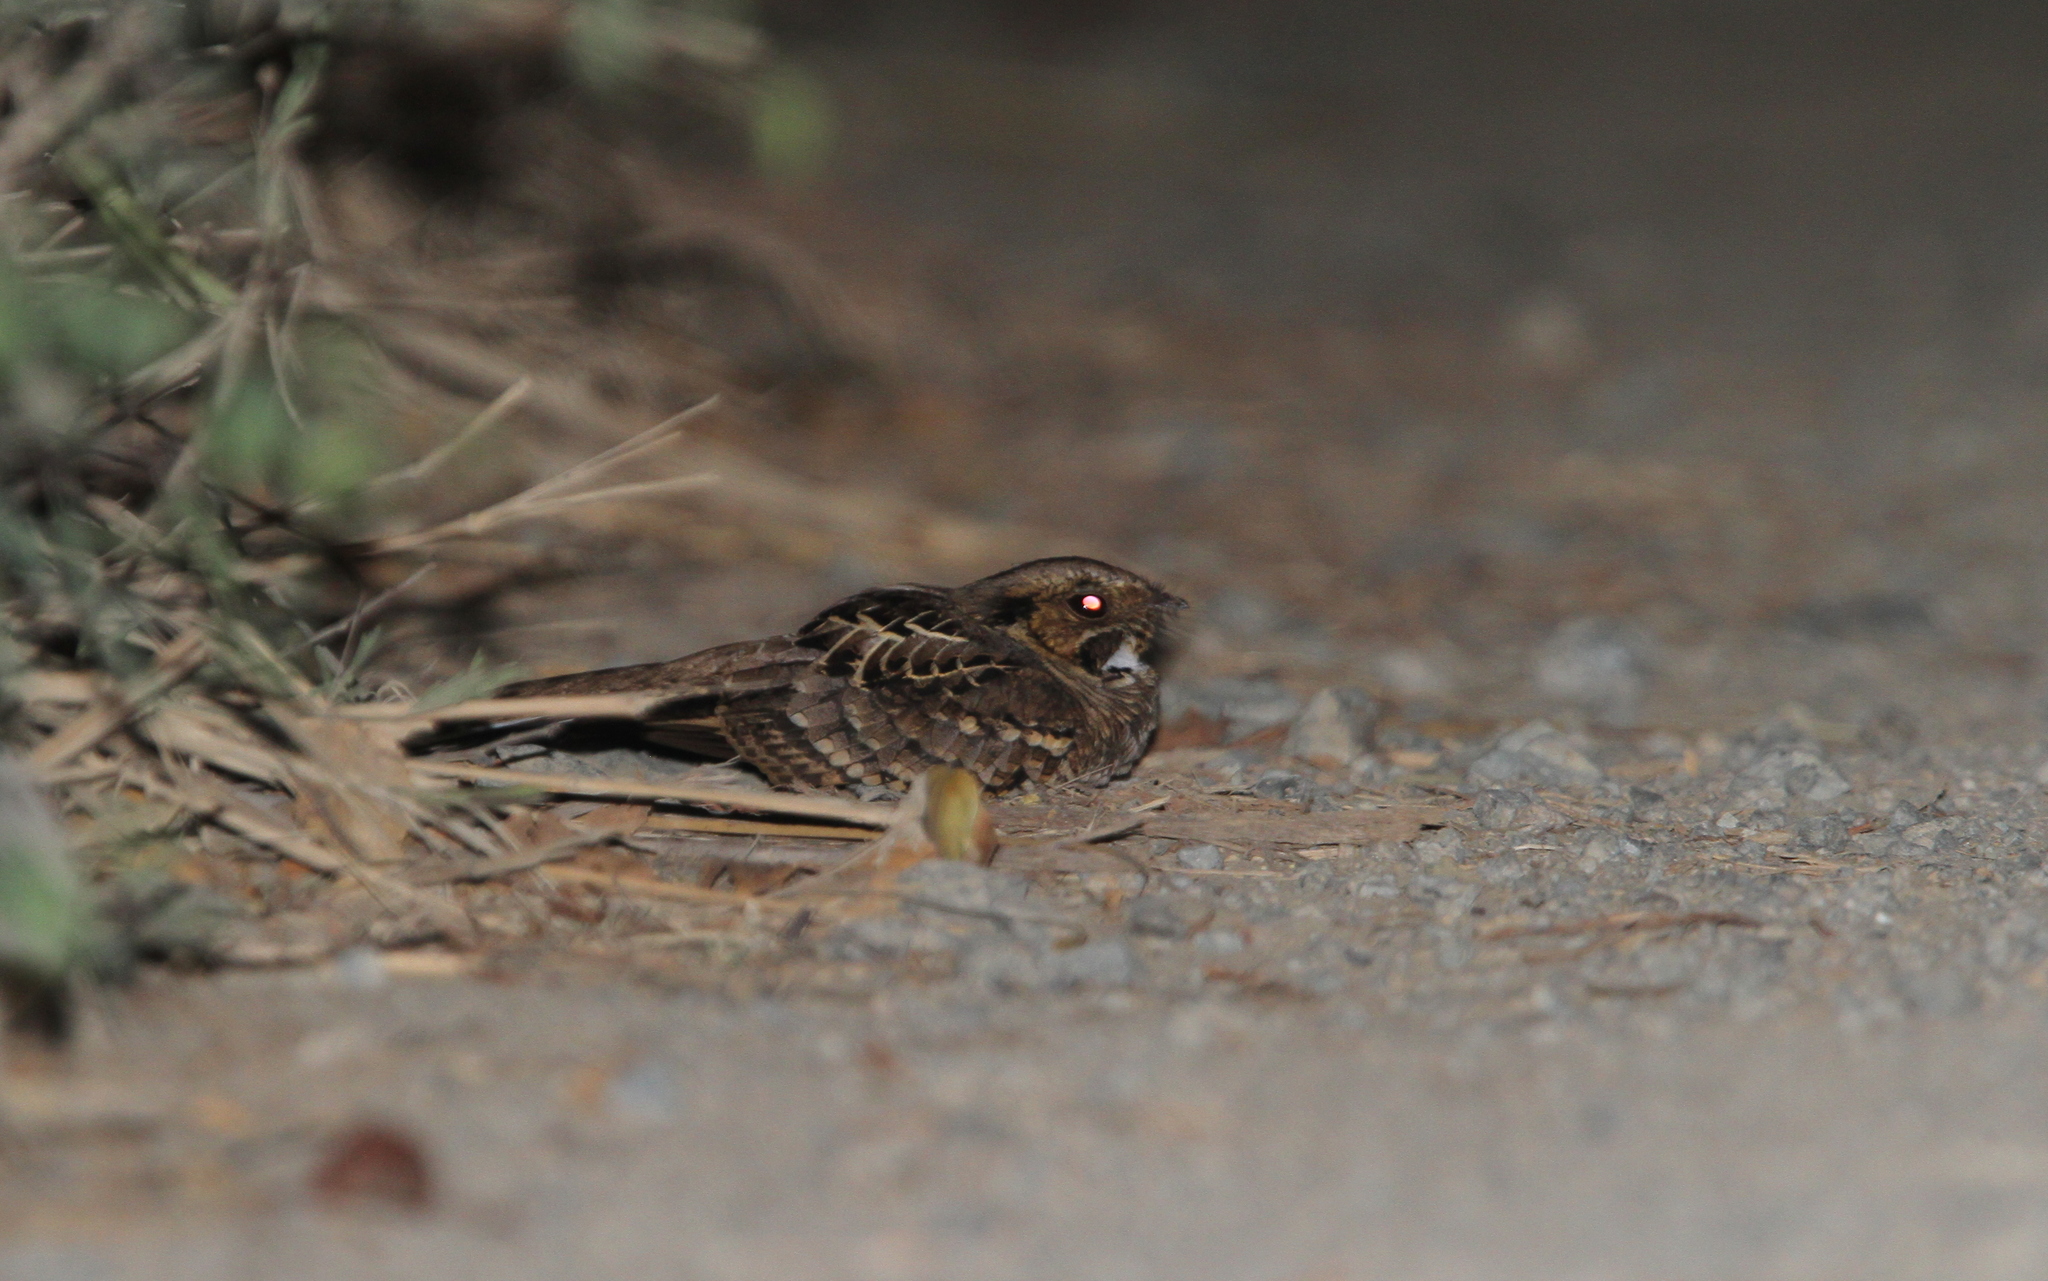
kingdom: Animalia
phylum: Chordata
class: Aves
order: Caprimulgiformes
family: Caprimulgidae
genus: Nyctidromus
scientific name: Nyctidromus albicollis
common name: Pauraque
